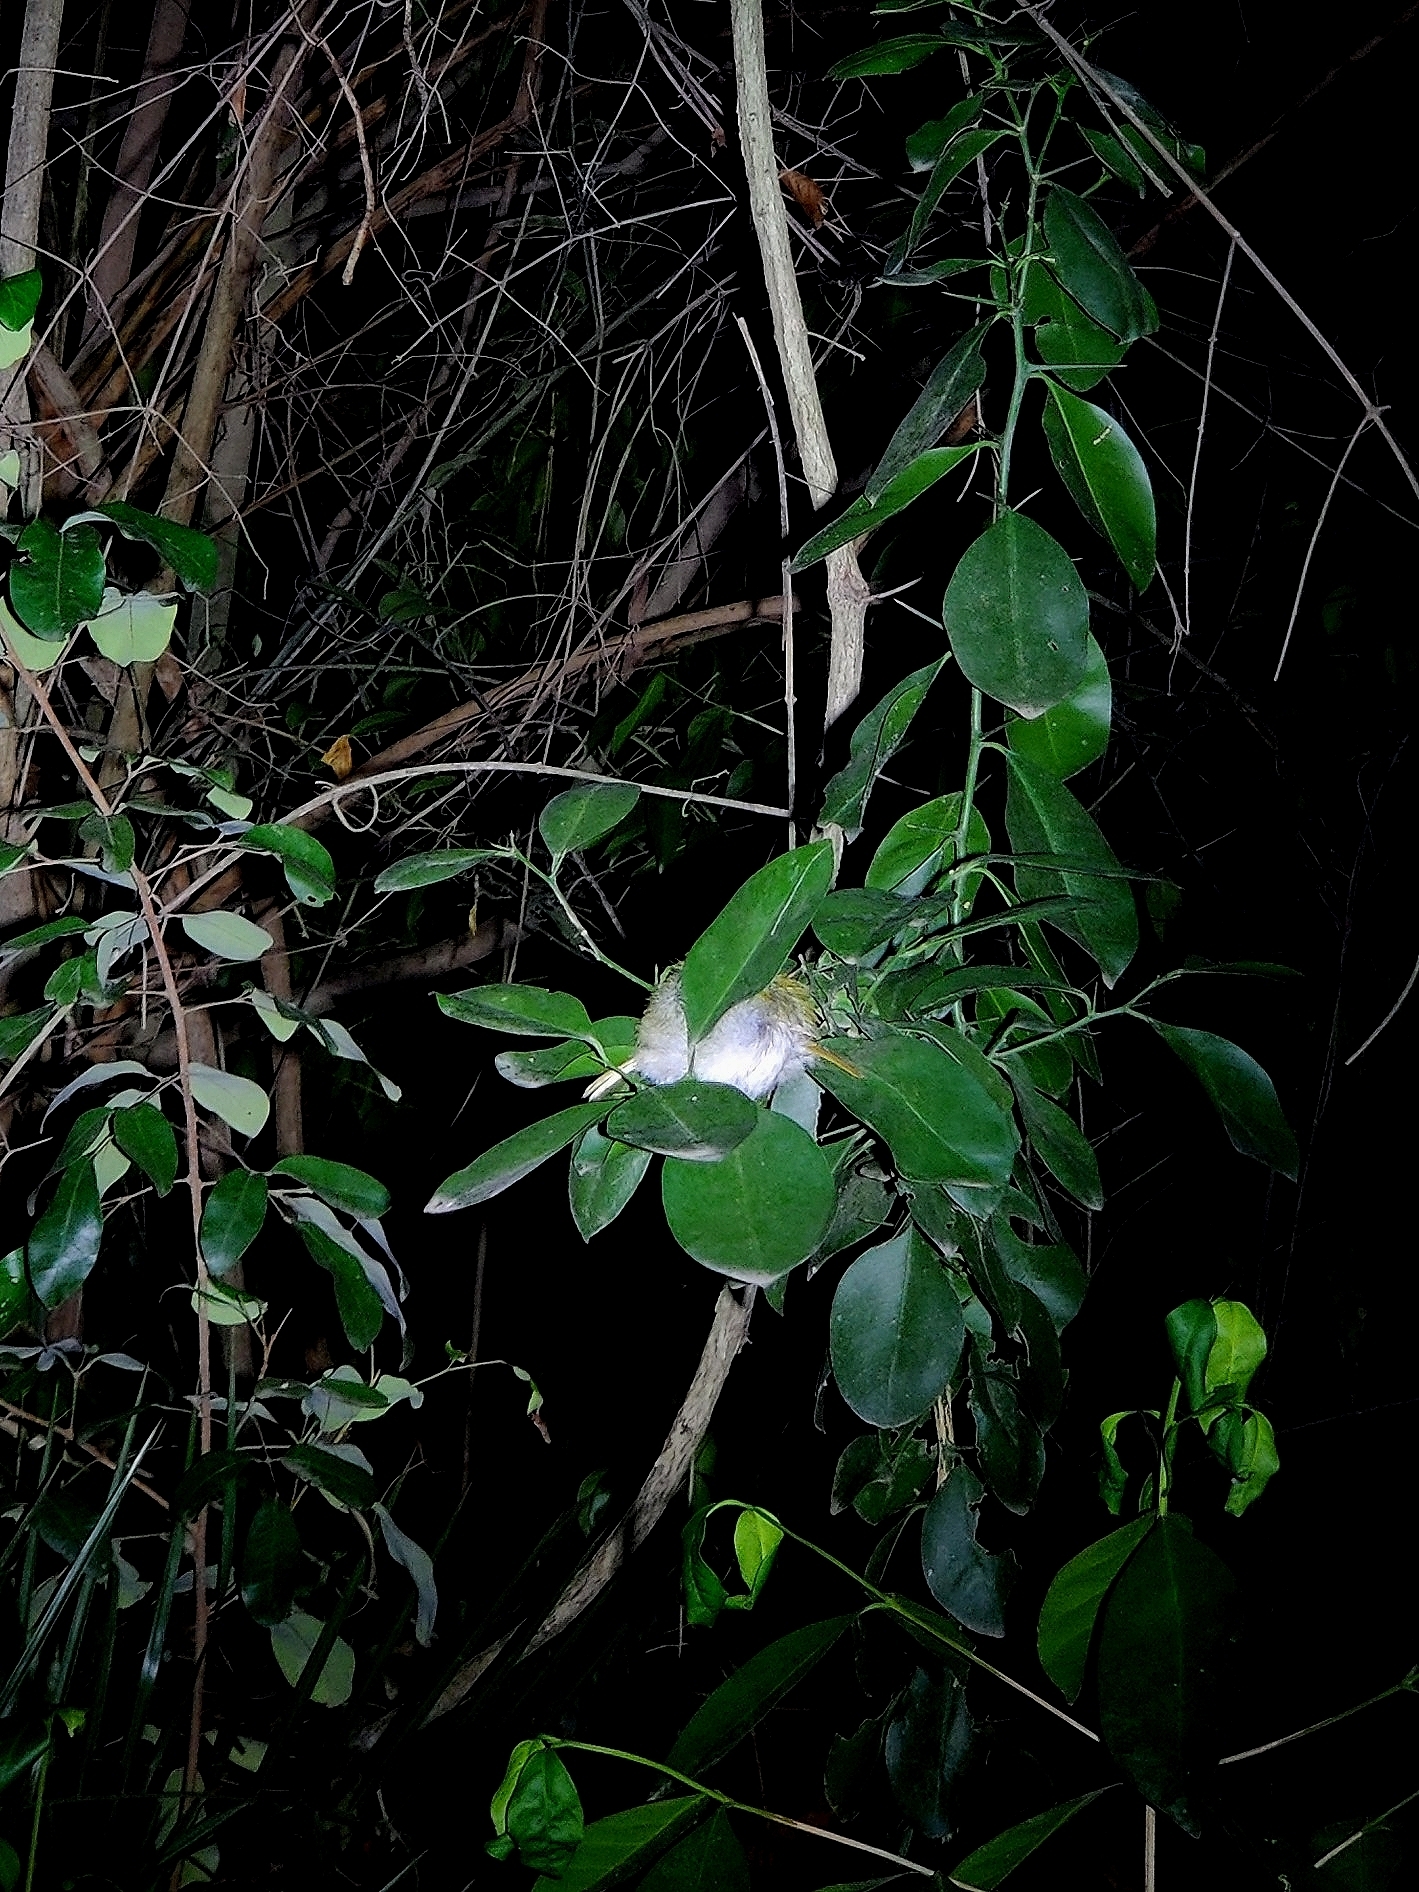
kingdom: Animalia
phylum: Chordata
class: Aves
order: Passeriformes
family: Cisticolidae
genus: Orthotomus
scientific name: Orthotomus sutorius
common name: Common tailorbird
